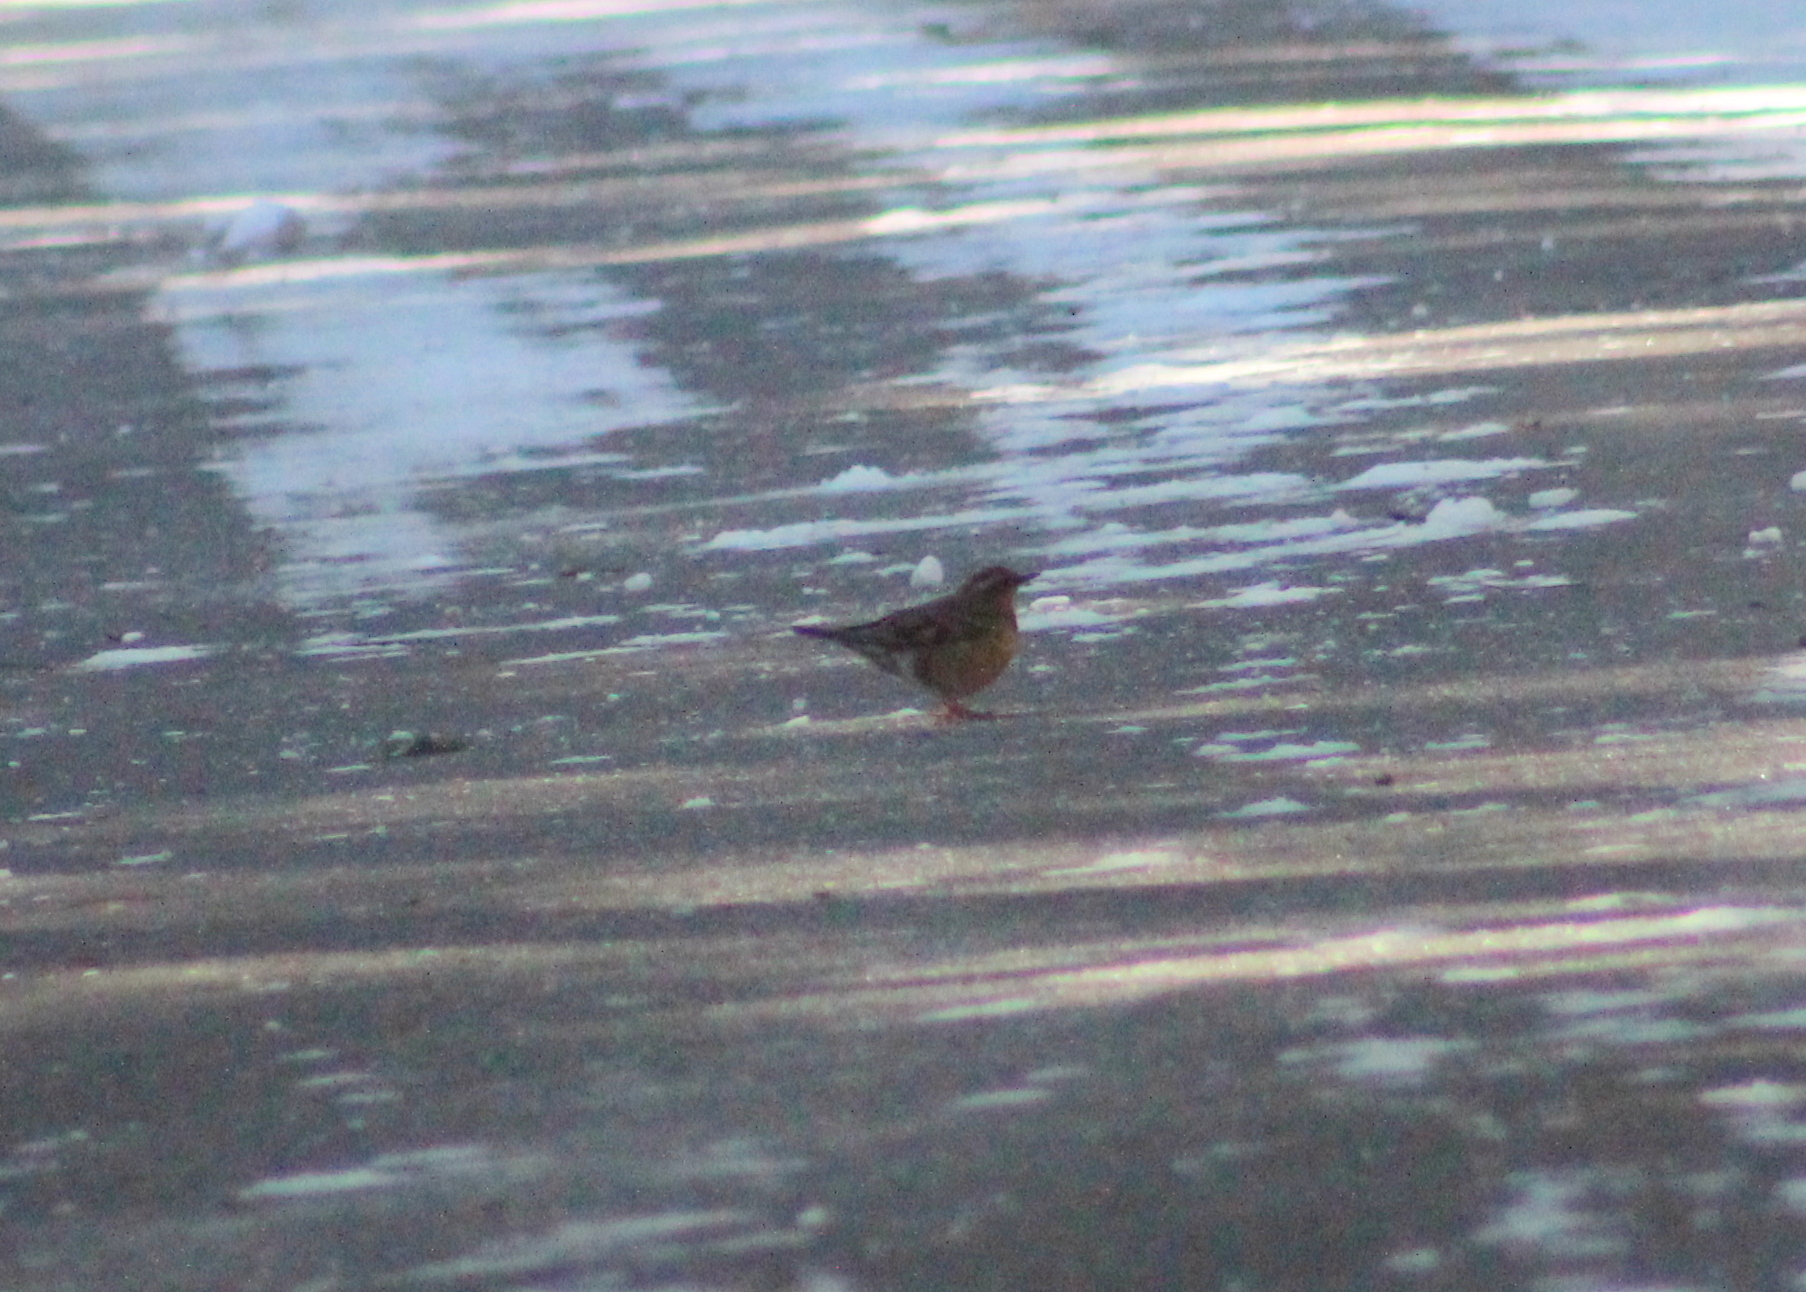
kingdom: Animalia
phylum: Chordata
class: Aves
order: Passeriformes
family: Turdidae
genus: Ixoreus
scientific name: Ixoreus naevius
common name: Varied thrush
